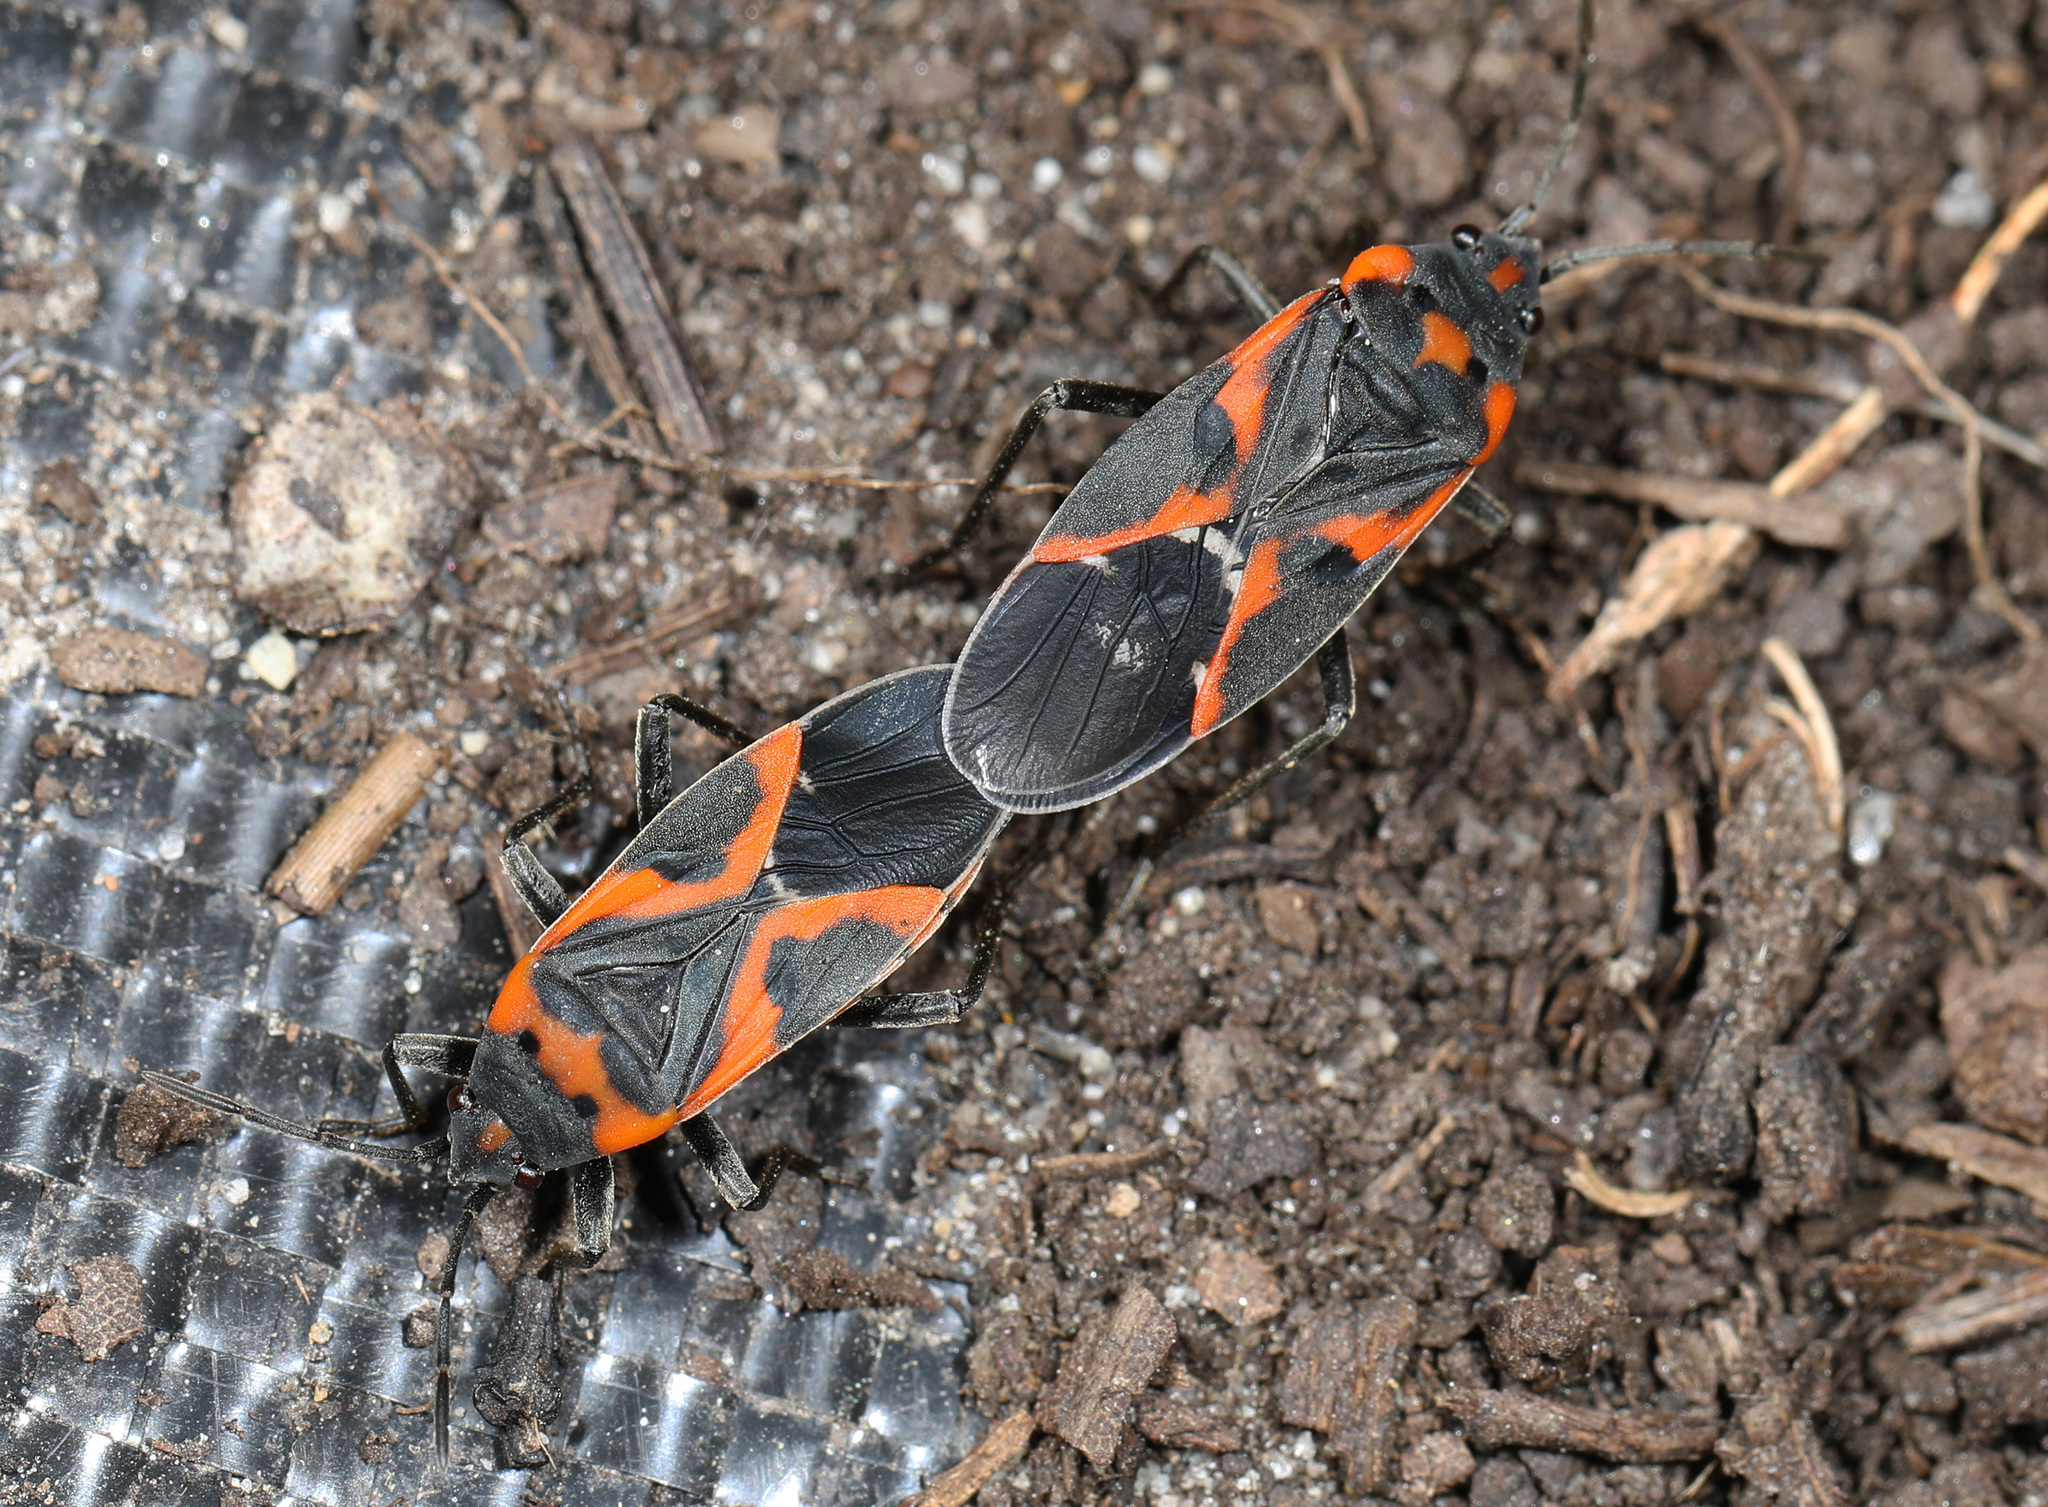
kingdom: Animalia
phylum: Arthropoda
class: Insecta
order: Hemiptera
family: Lygaeidae
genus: Lygaeus
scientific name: Lygaeus kalmii
